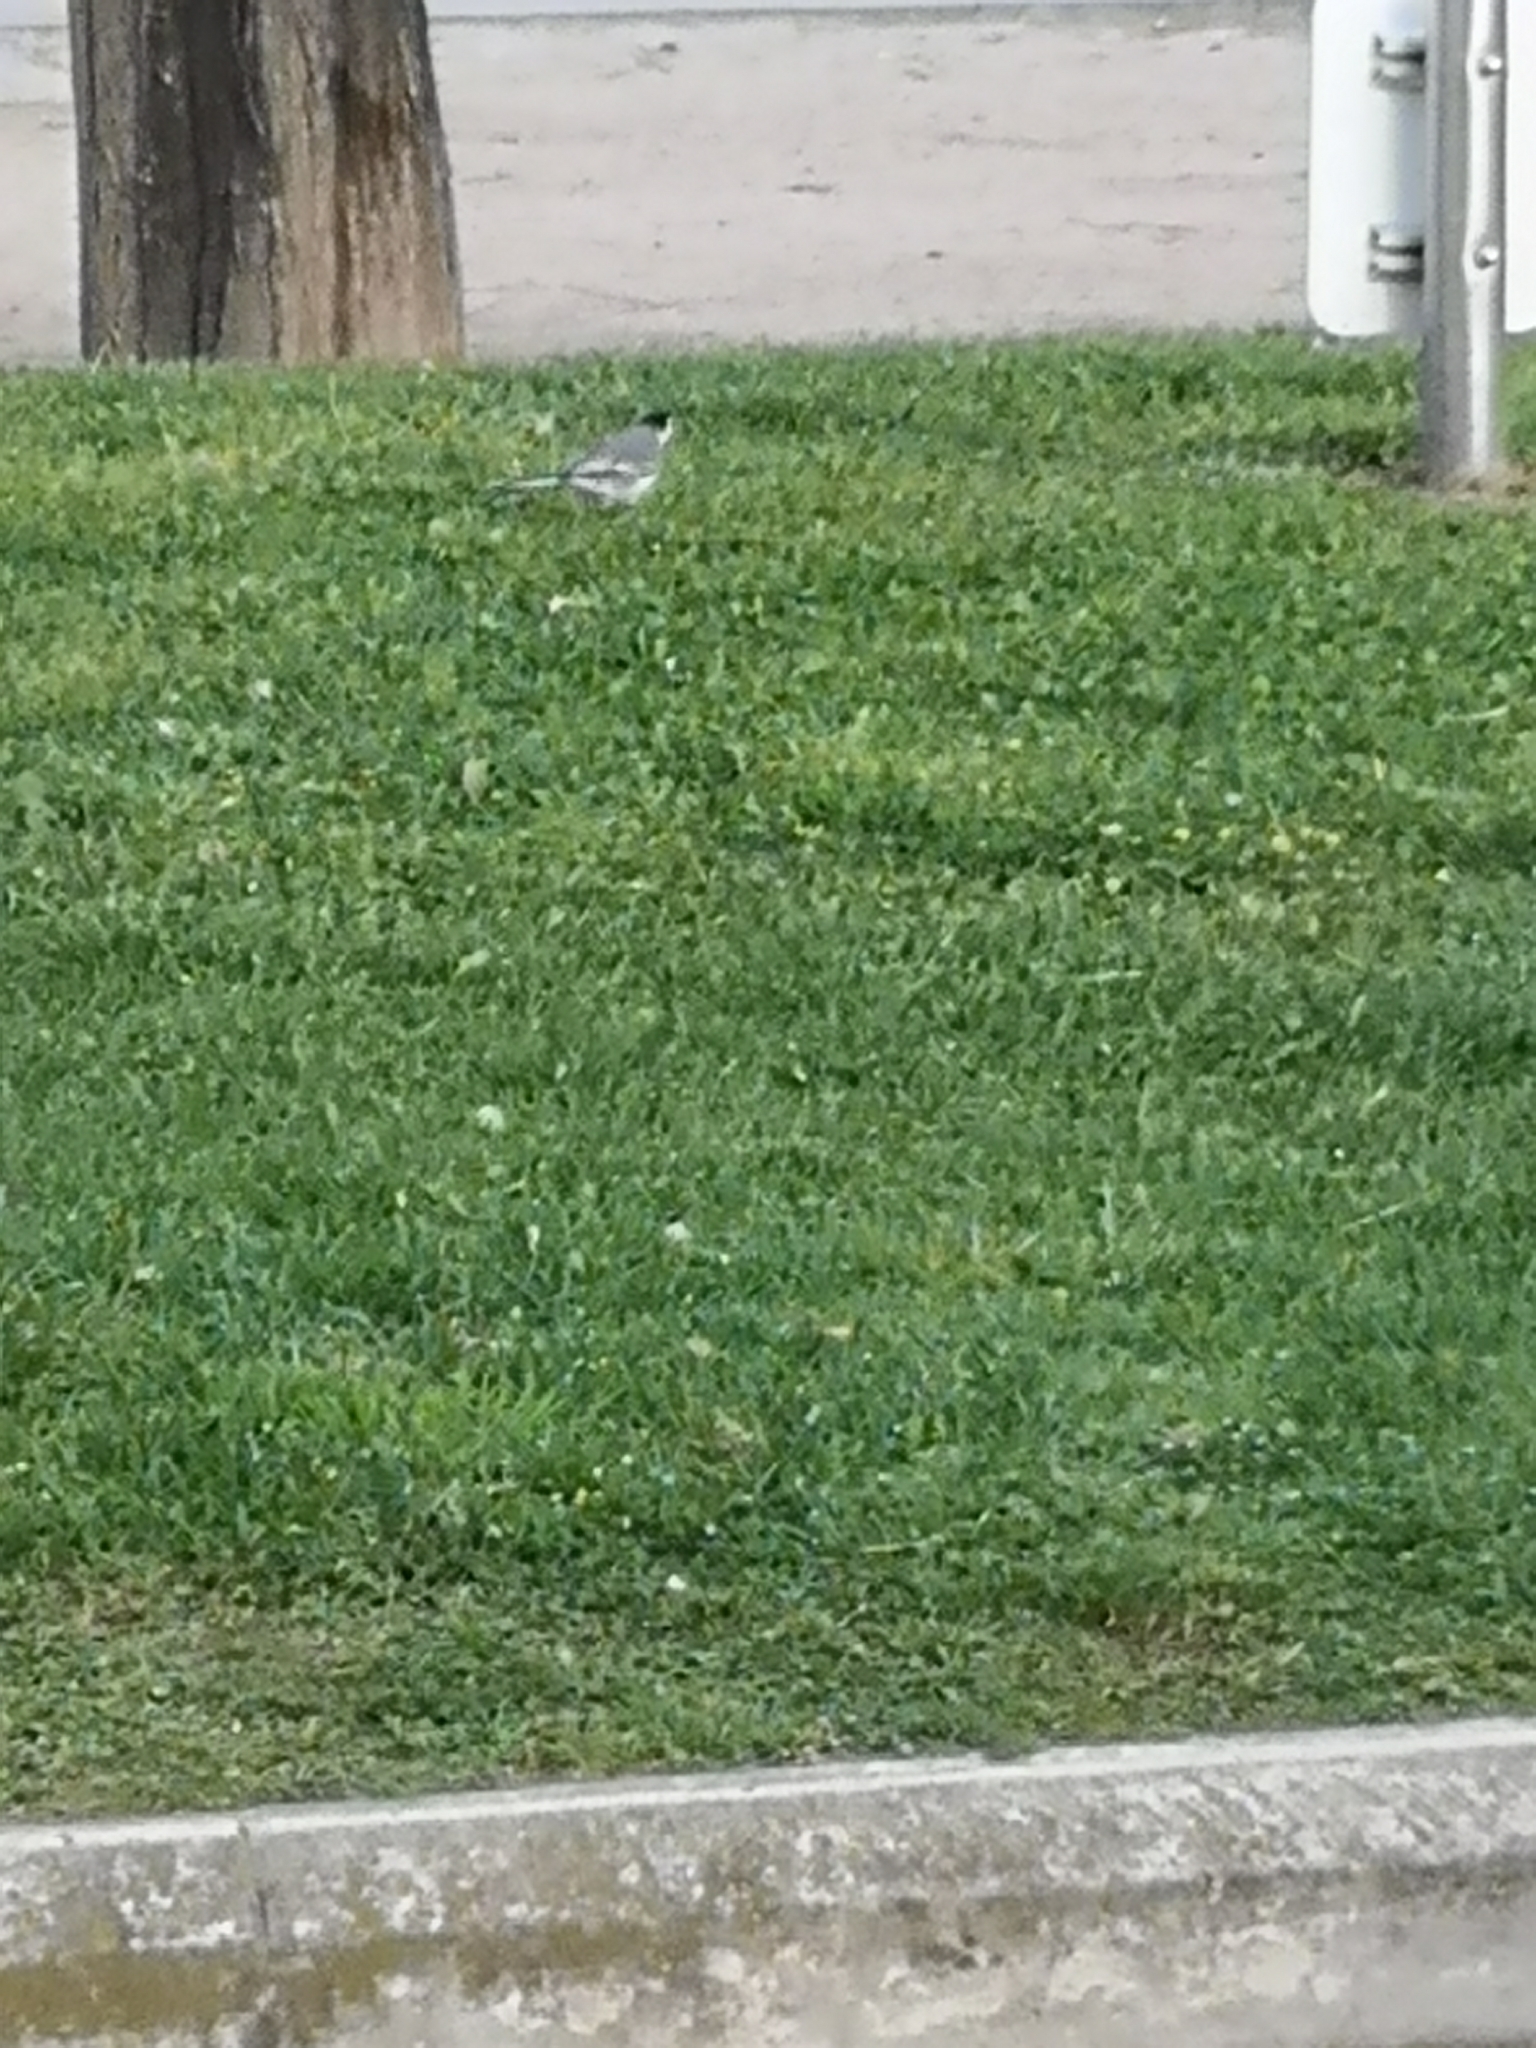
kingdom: Animalia
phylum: Chordata
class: Aves
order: Passeriformes
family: Motacillidae
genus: Motacilla
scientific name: Motacilla alba
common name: White wagtail
